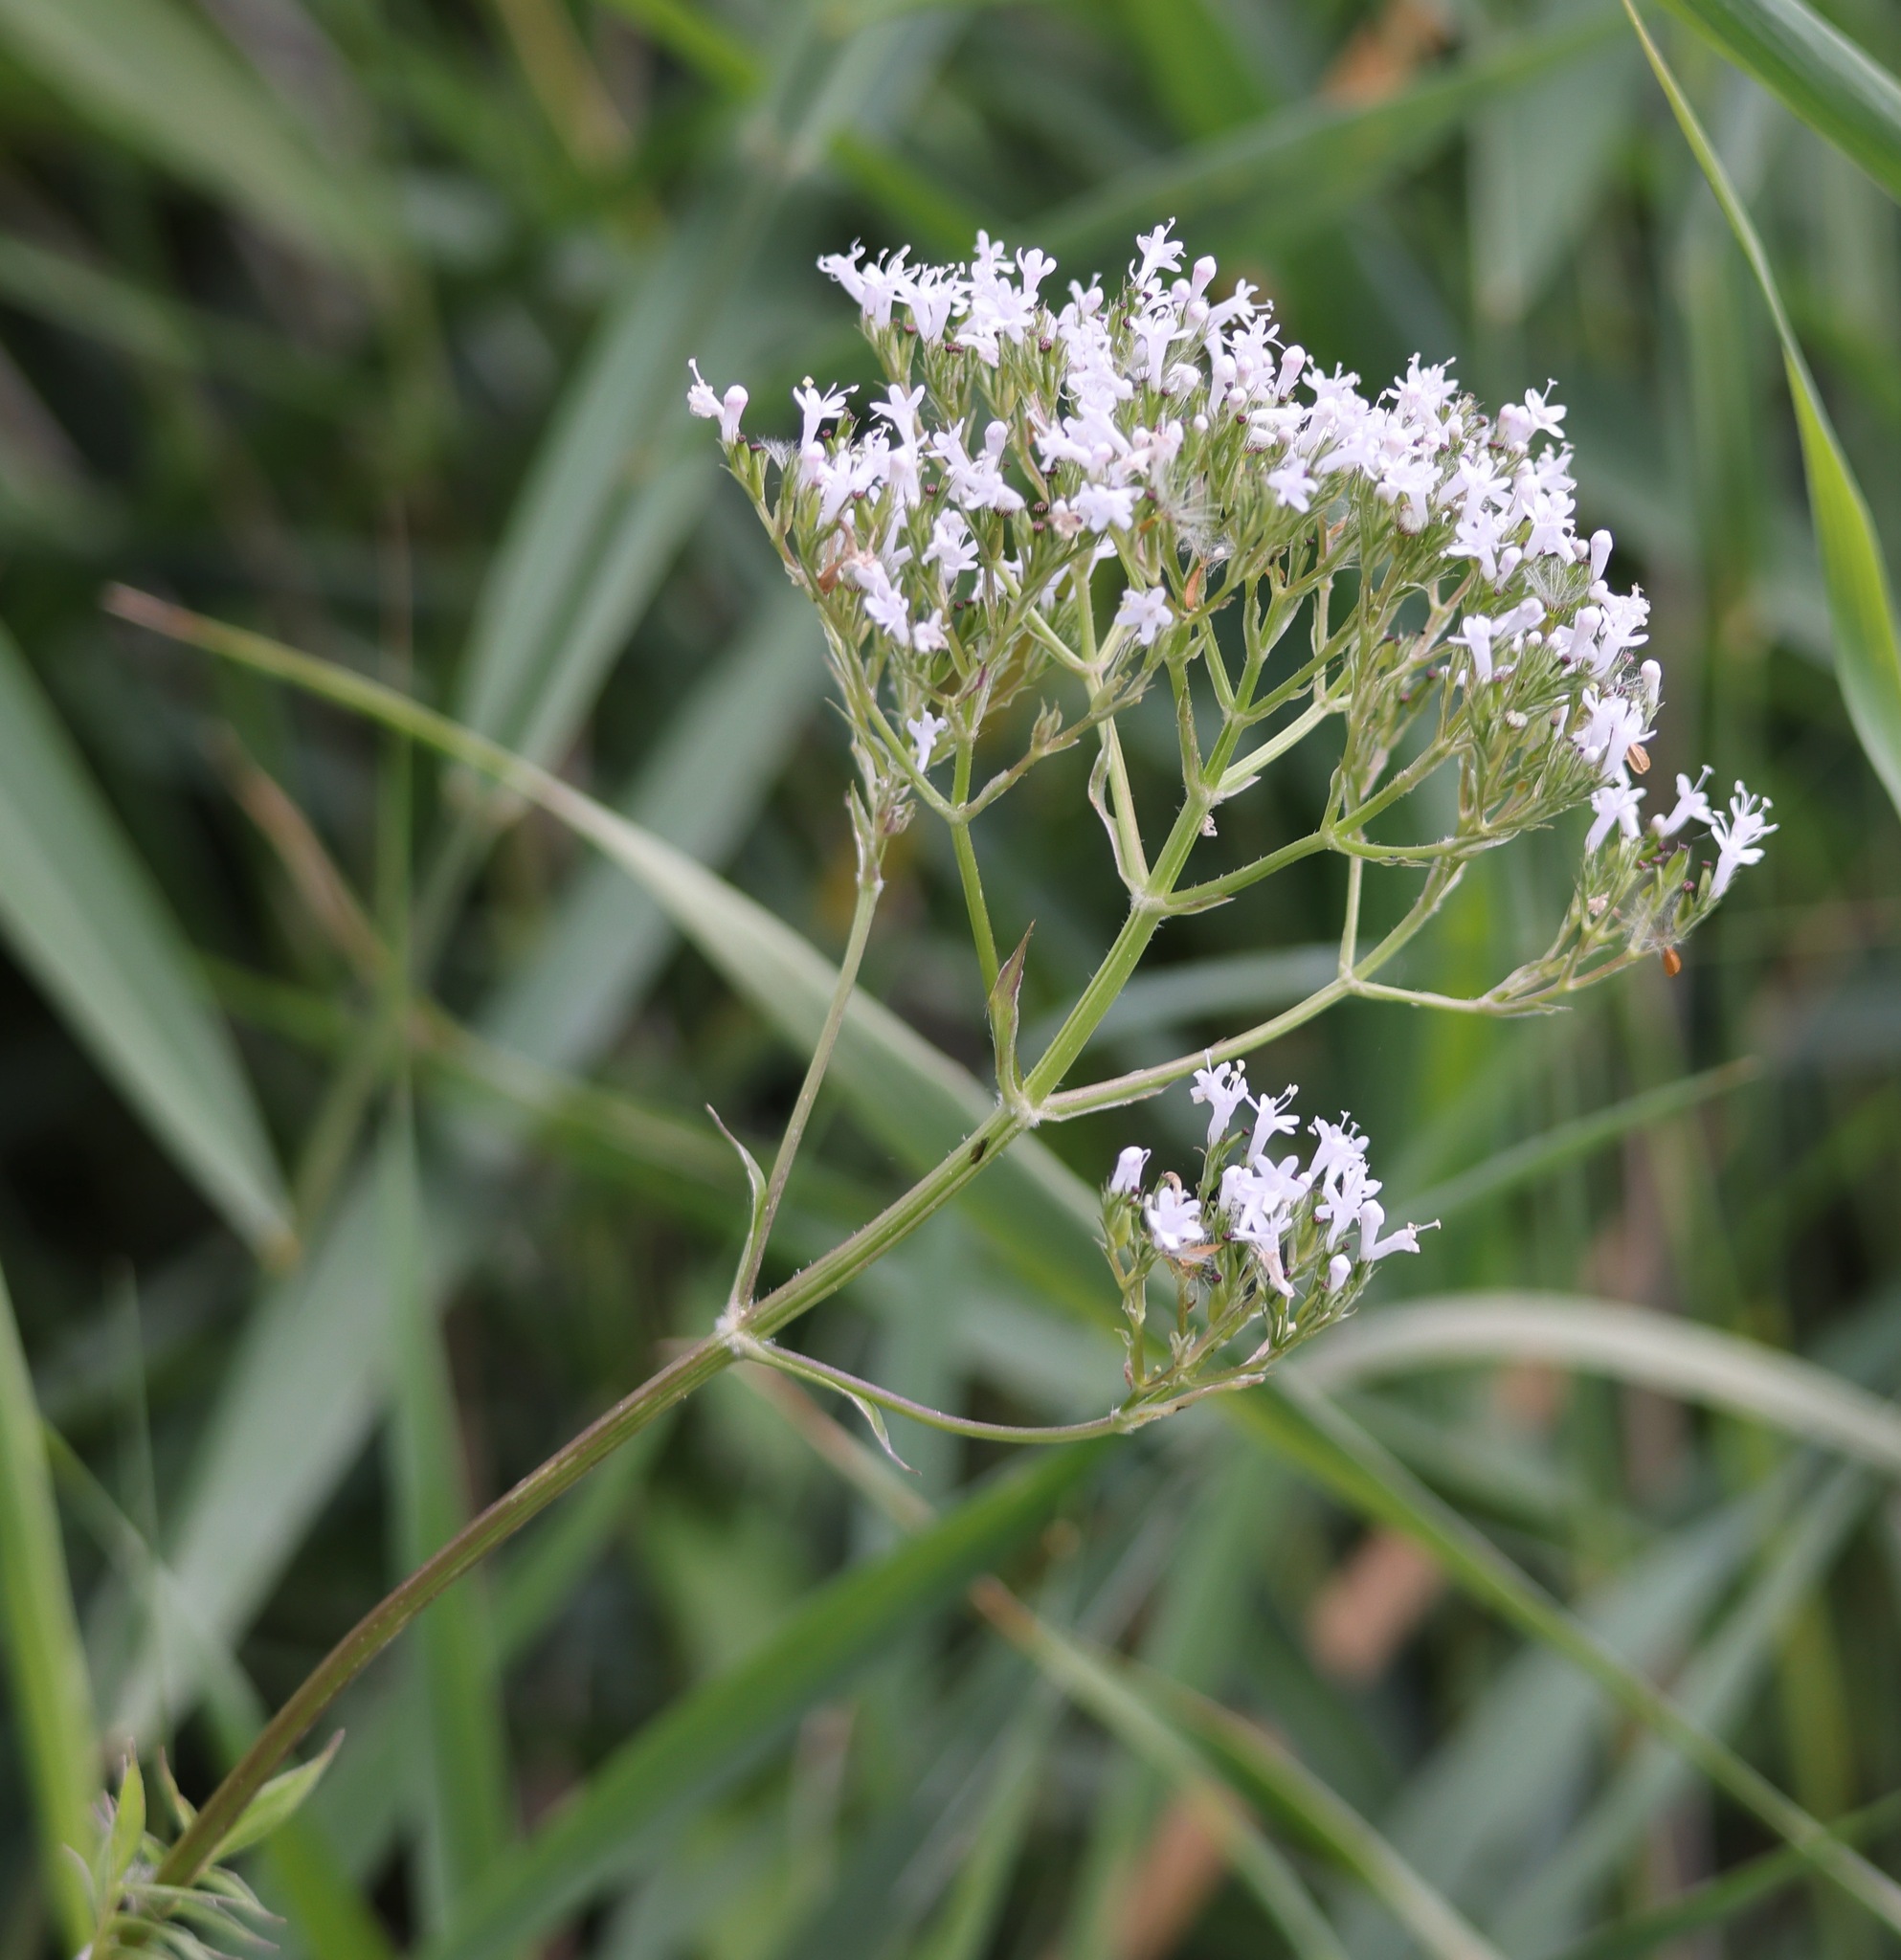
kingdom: Plantae
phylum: Tracheophyta
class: Magnoliopsida
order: Dipsacales
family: Caprifoliaceae
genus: Valeriana
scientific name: Valeriana officinalis
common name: Common valerian
